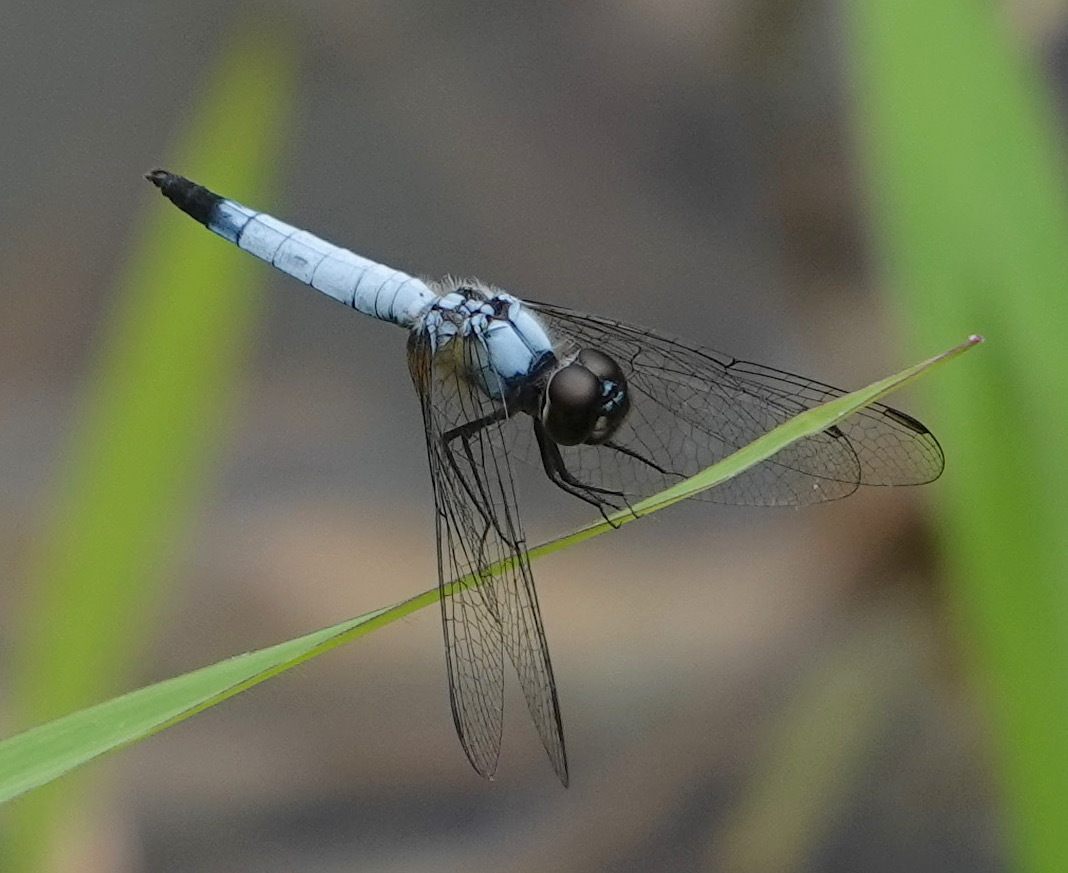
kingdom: Animalia
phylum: Arthropoda
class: Insecta
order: Odonata
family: Libellulidae
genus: Aethriamanta
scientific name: Aethriamanta gracilis
